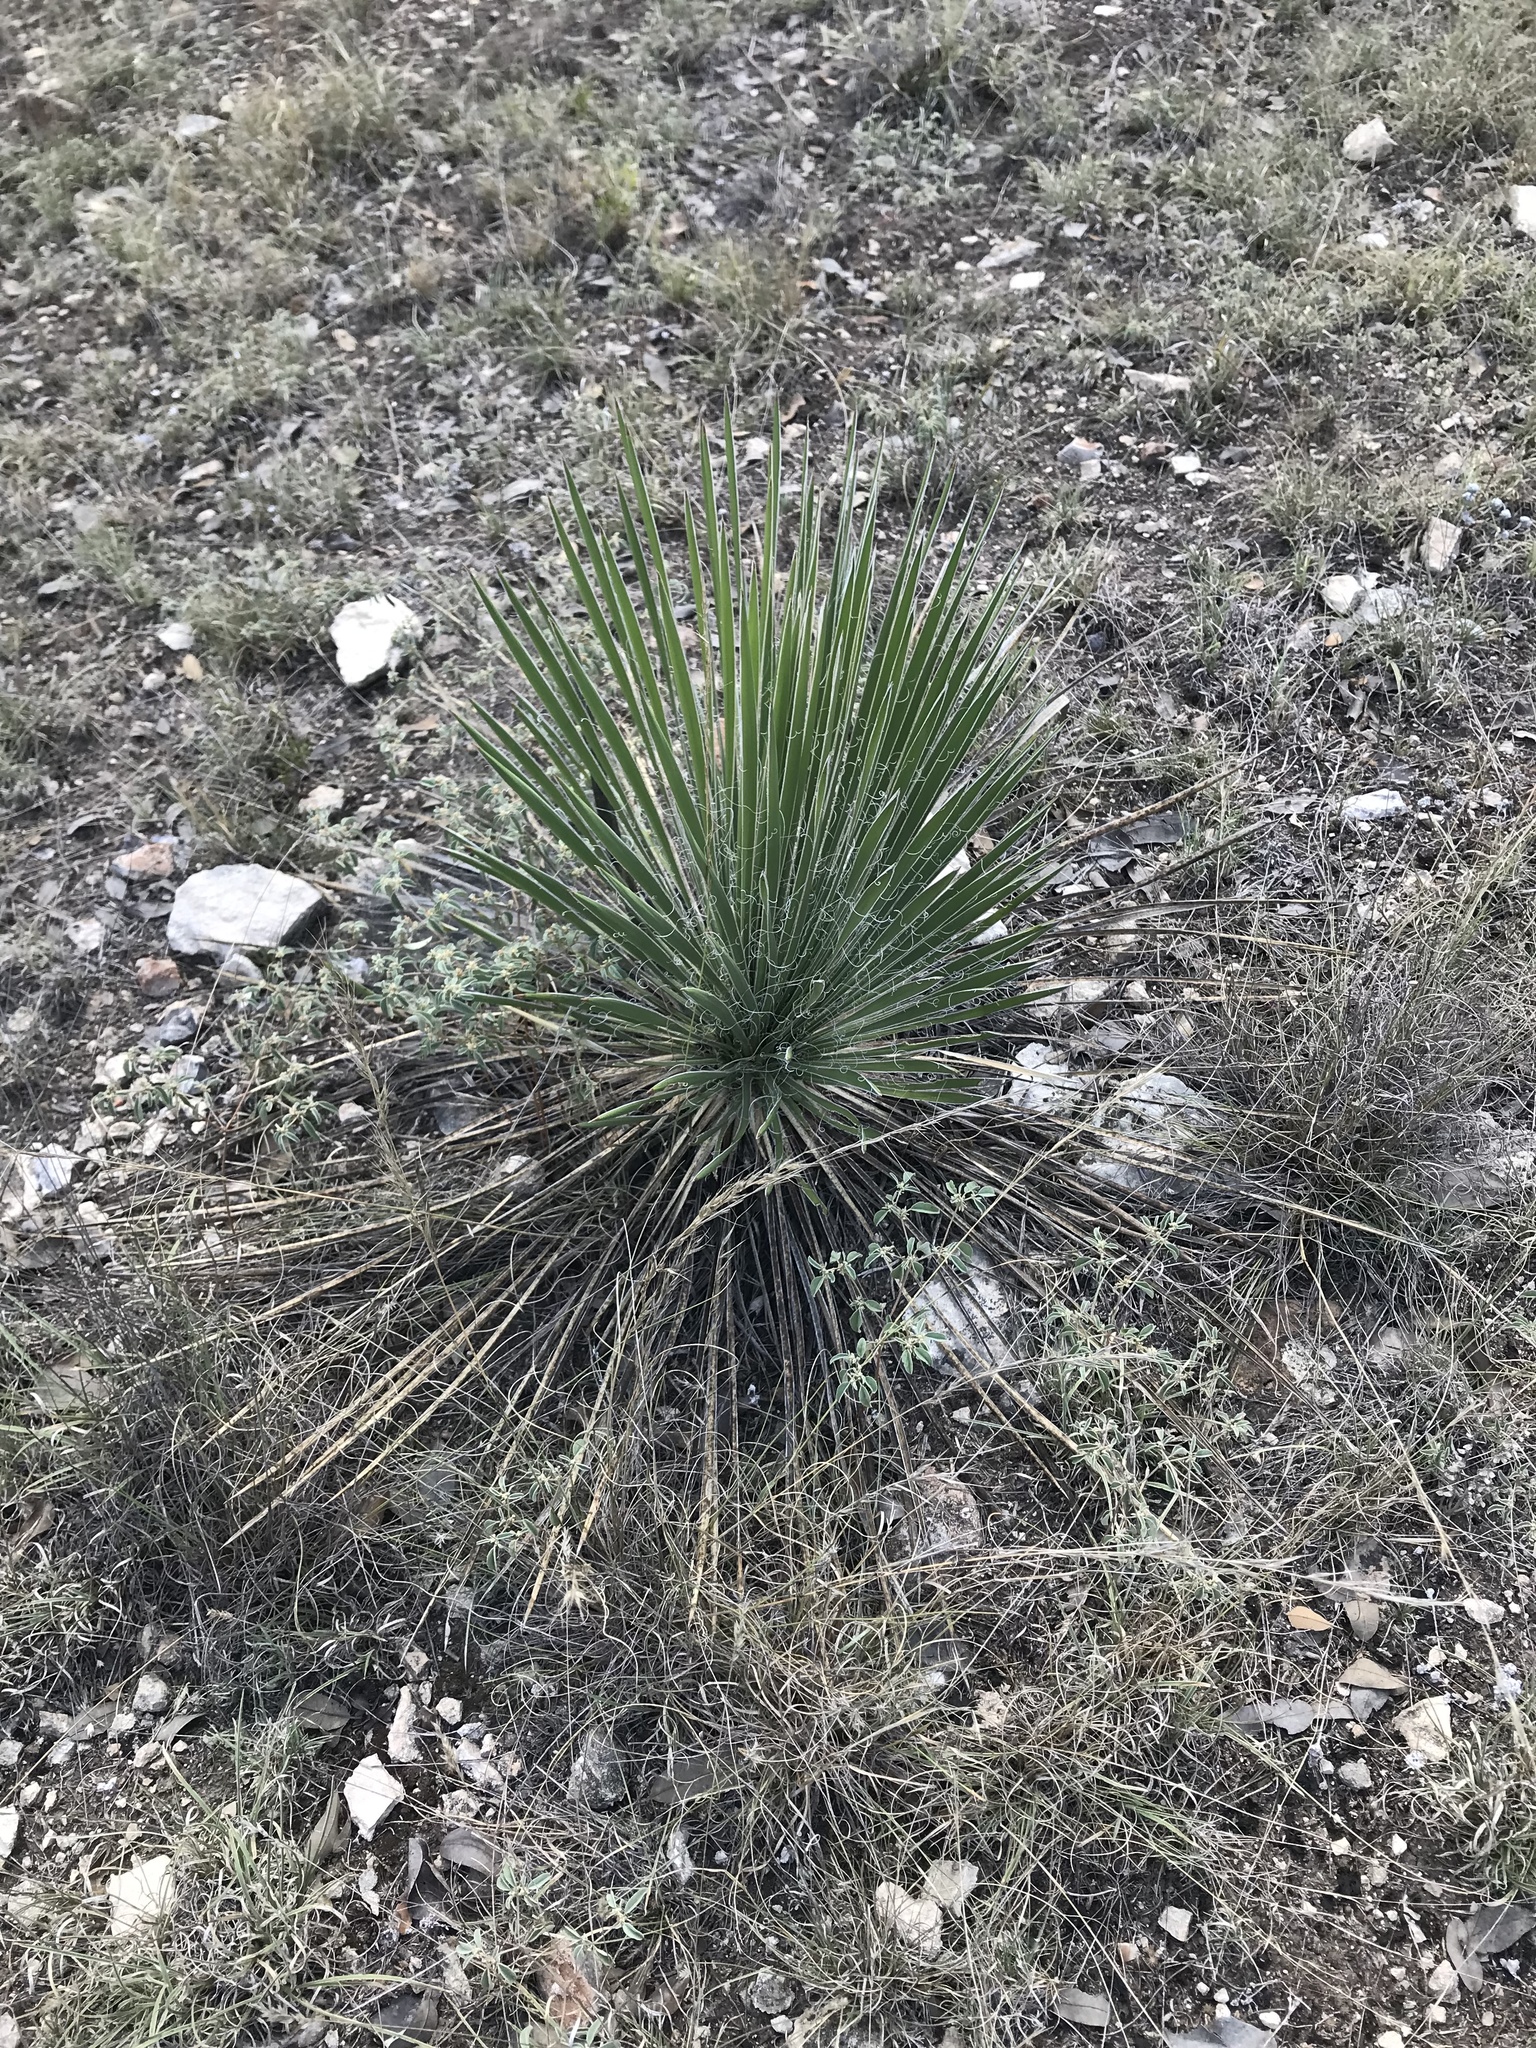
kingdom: Plantae
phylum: Tracheophyta
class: Liliopsida
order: Asparagales
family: Asparagaceae
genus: Yucca
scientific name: Yucca constricta
